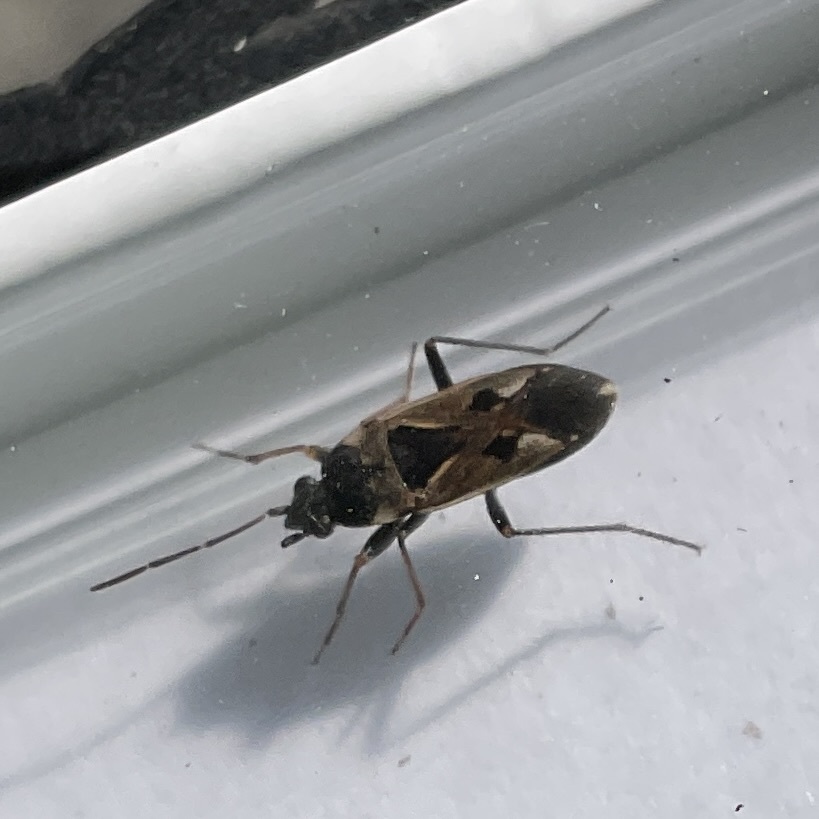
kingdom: Animalia
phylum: Arthropoda
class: Insecta
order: Hemiptera
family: Rhyparochromidae
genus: Rhyparochromus
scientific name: Rhyparochromus vulgaris
